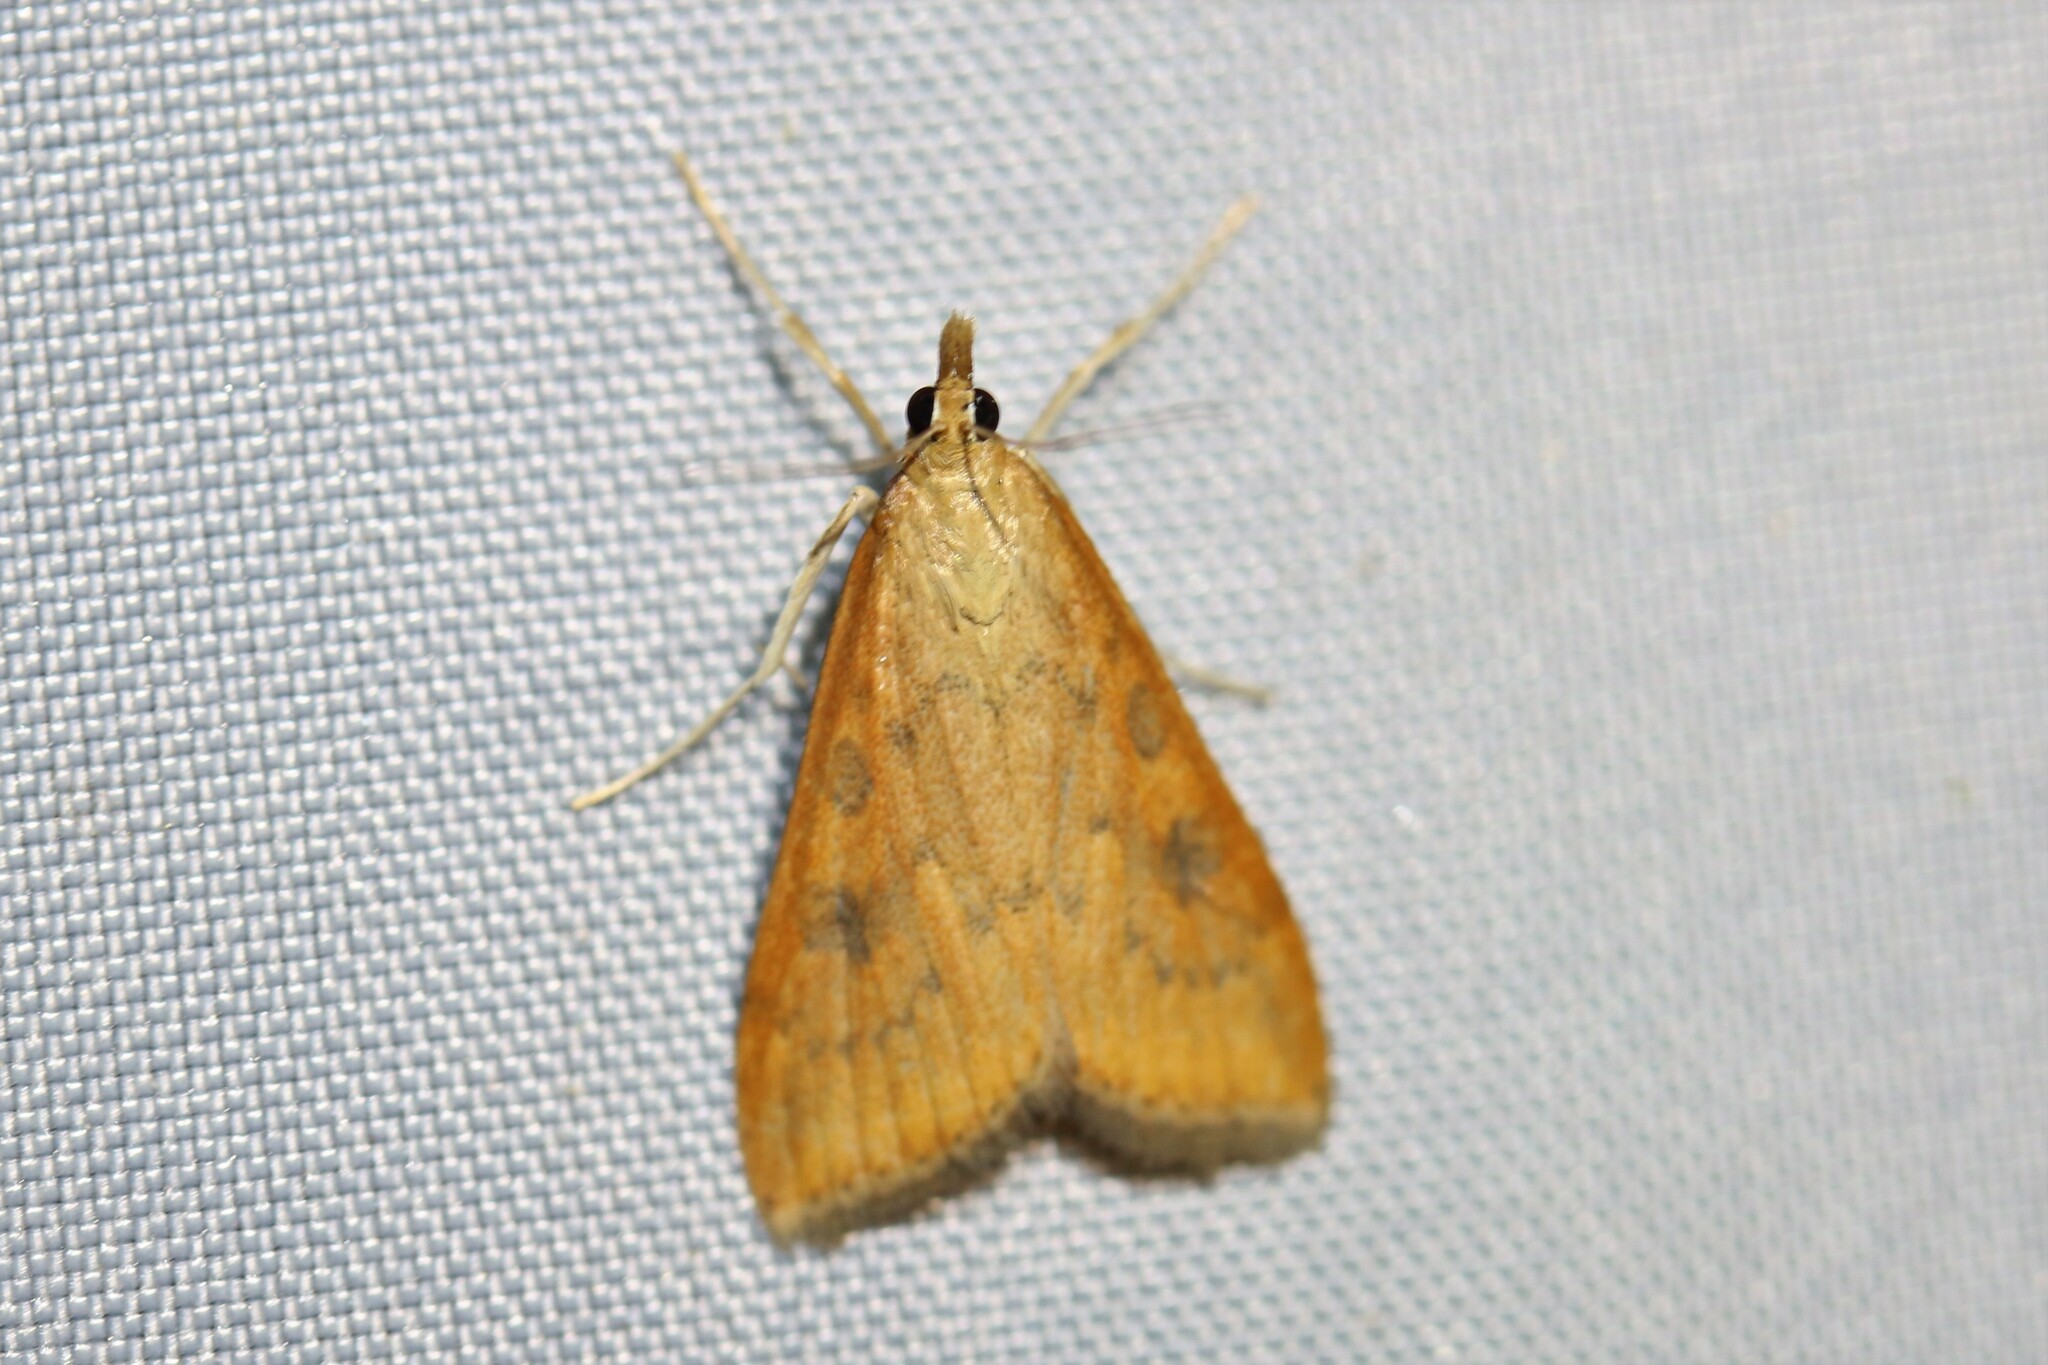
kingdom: Animalia
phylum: Arthropoda
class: Insecta
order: Lepidoptera
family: Crambidae
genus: Udea
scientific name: Udea ferrugalis
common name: Rusty dot
